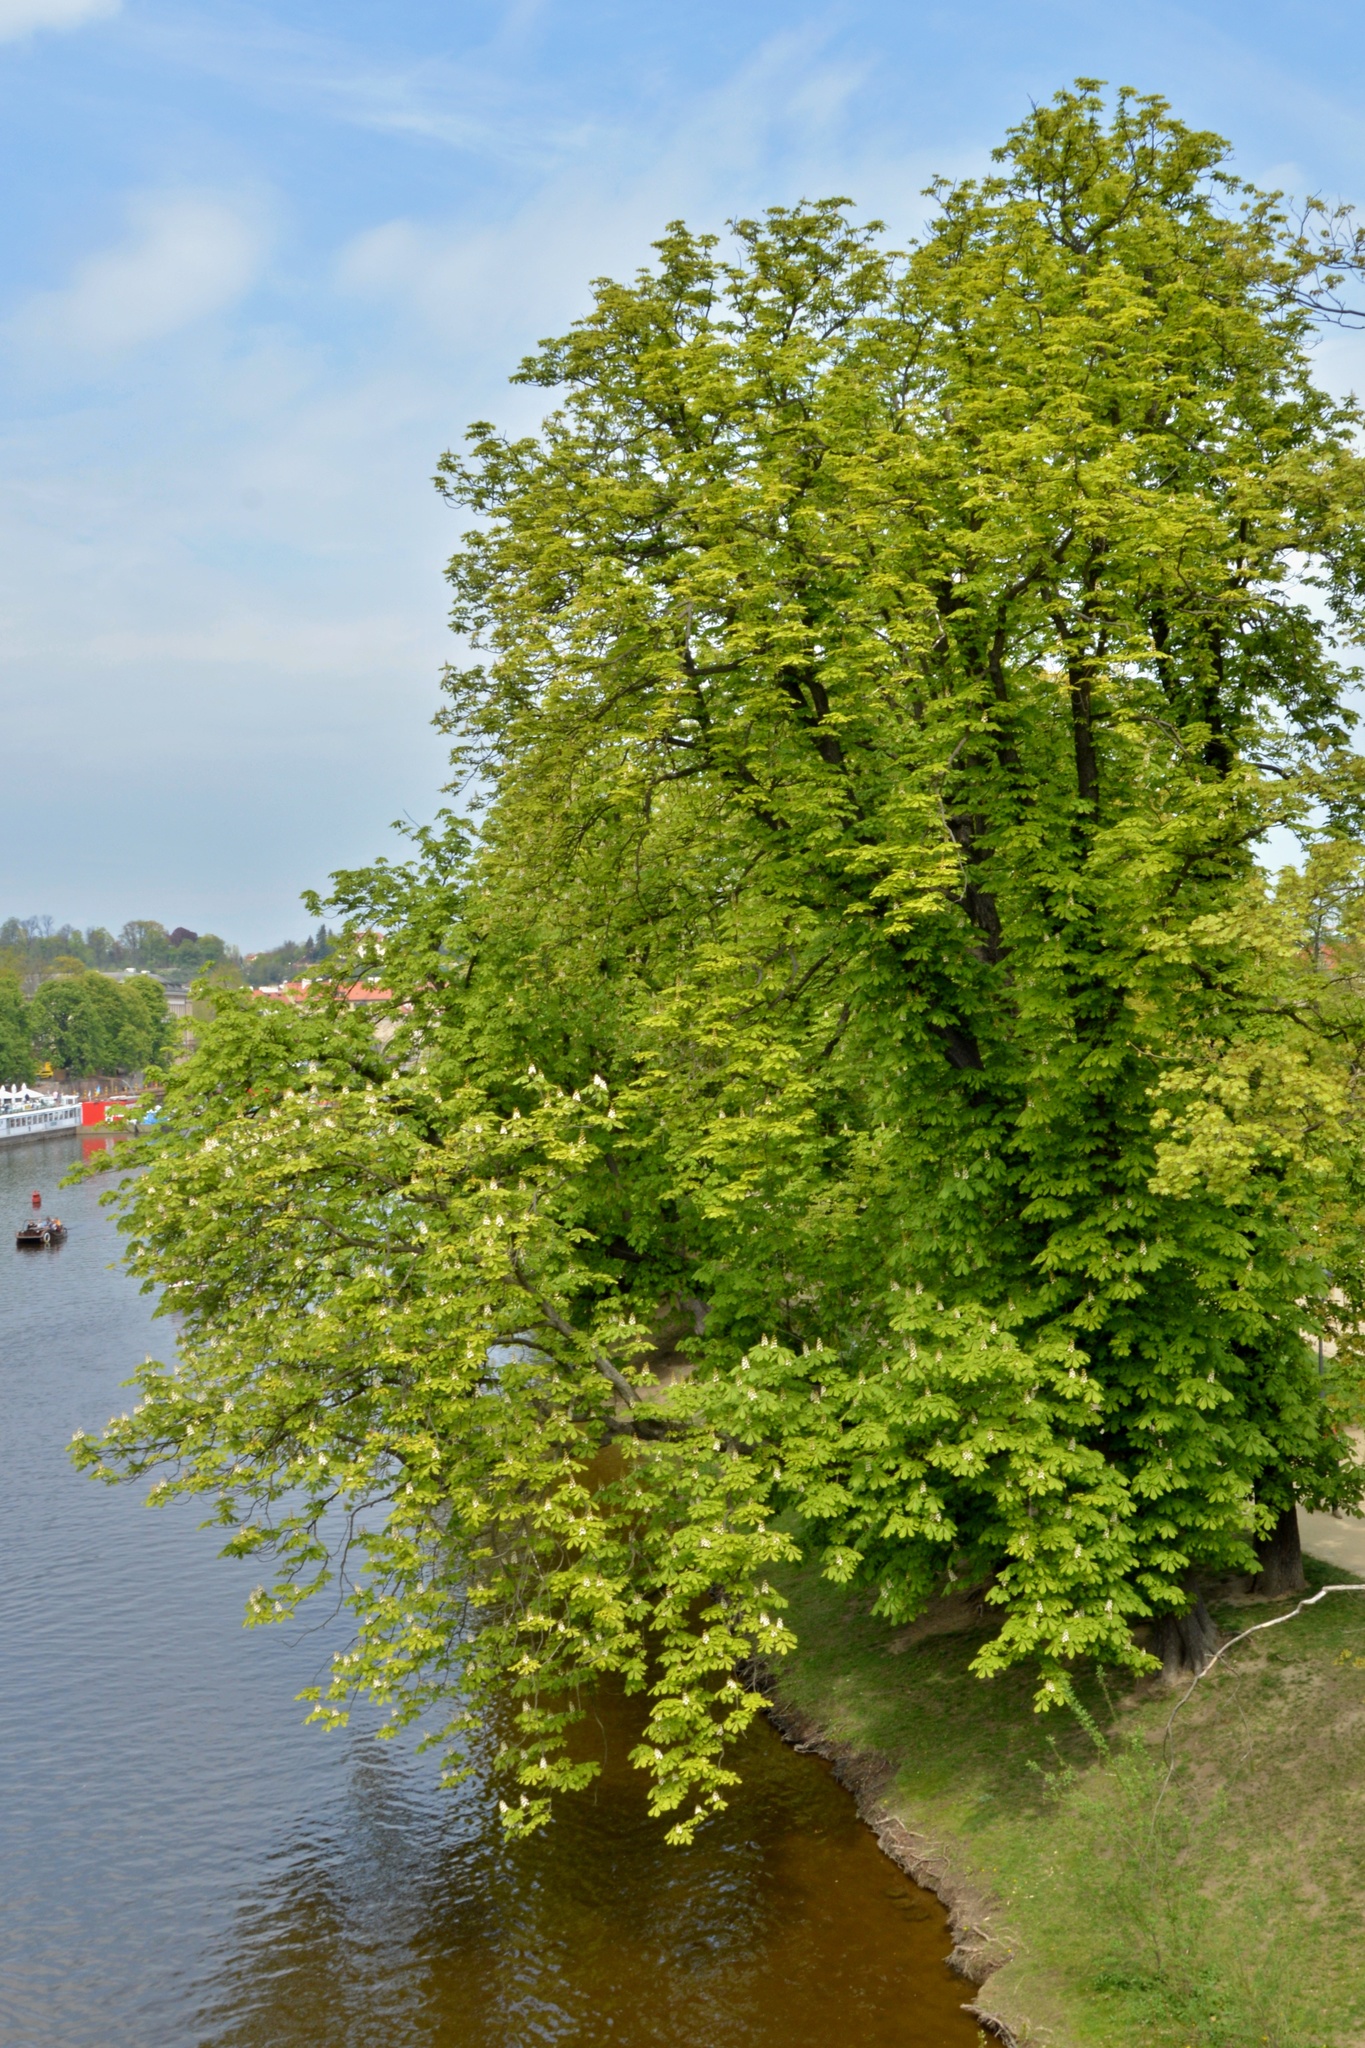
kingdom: Plantae
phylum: Tracheophyta
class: Magnoliopsida
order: Sapindales
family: Sapindaceae
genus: Aesculus
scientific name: Aesculus hippocastanum
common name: Horse-chestnut
